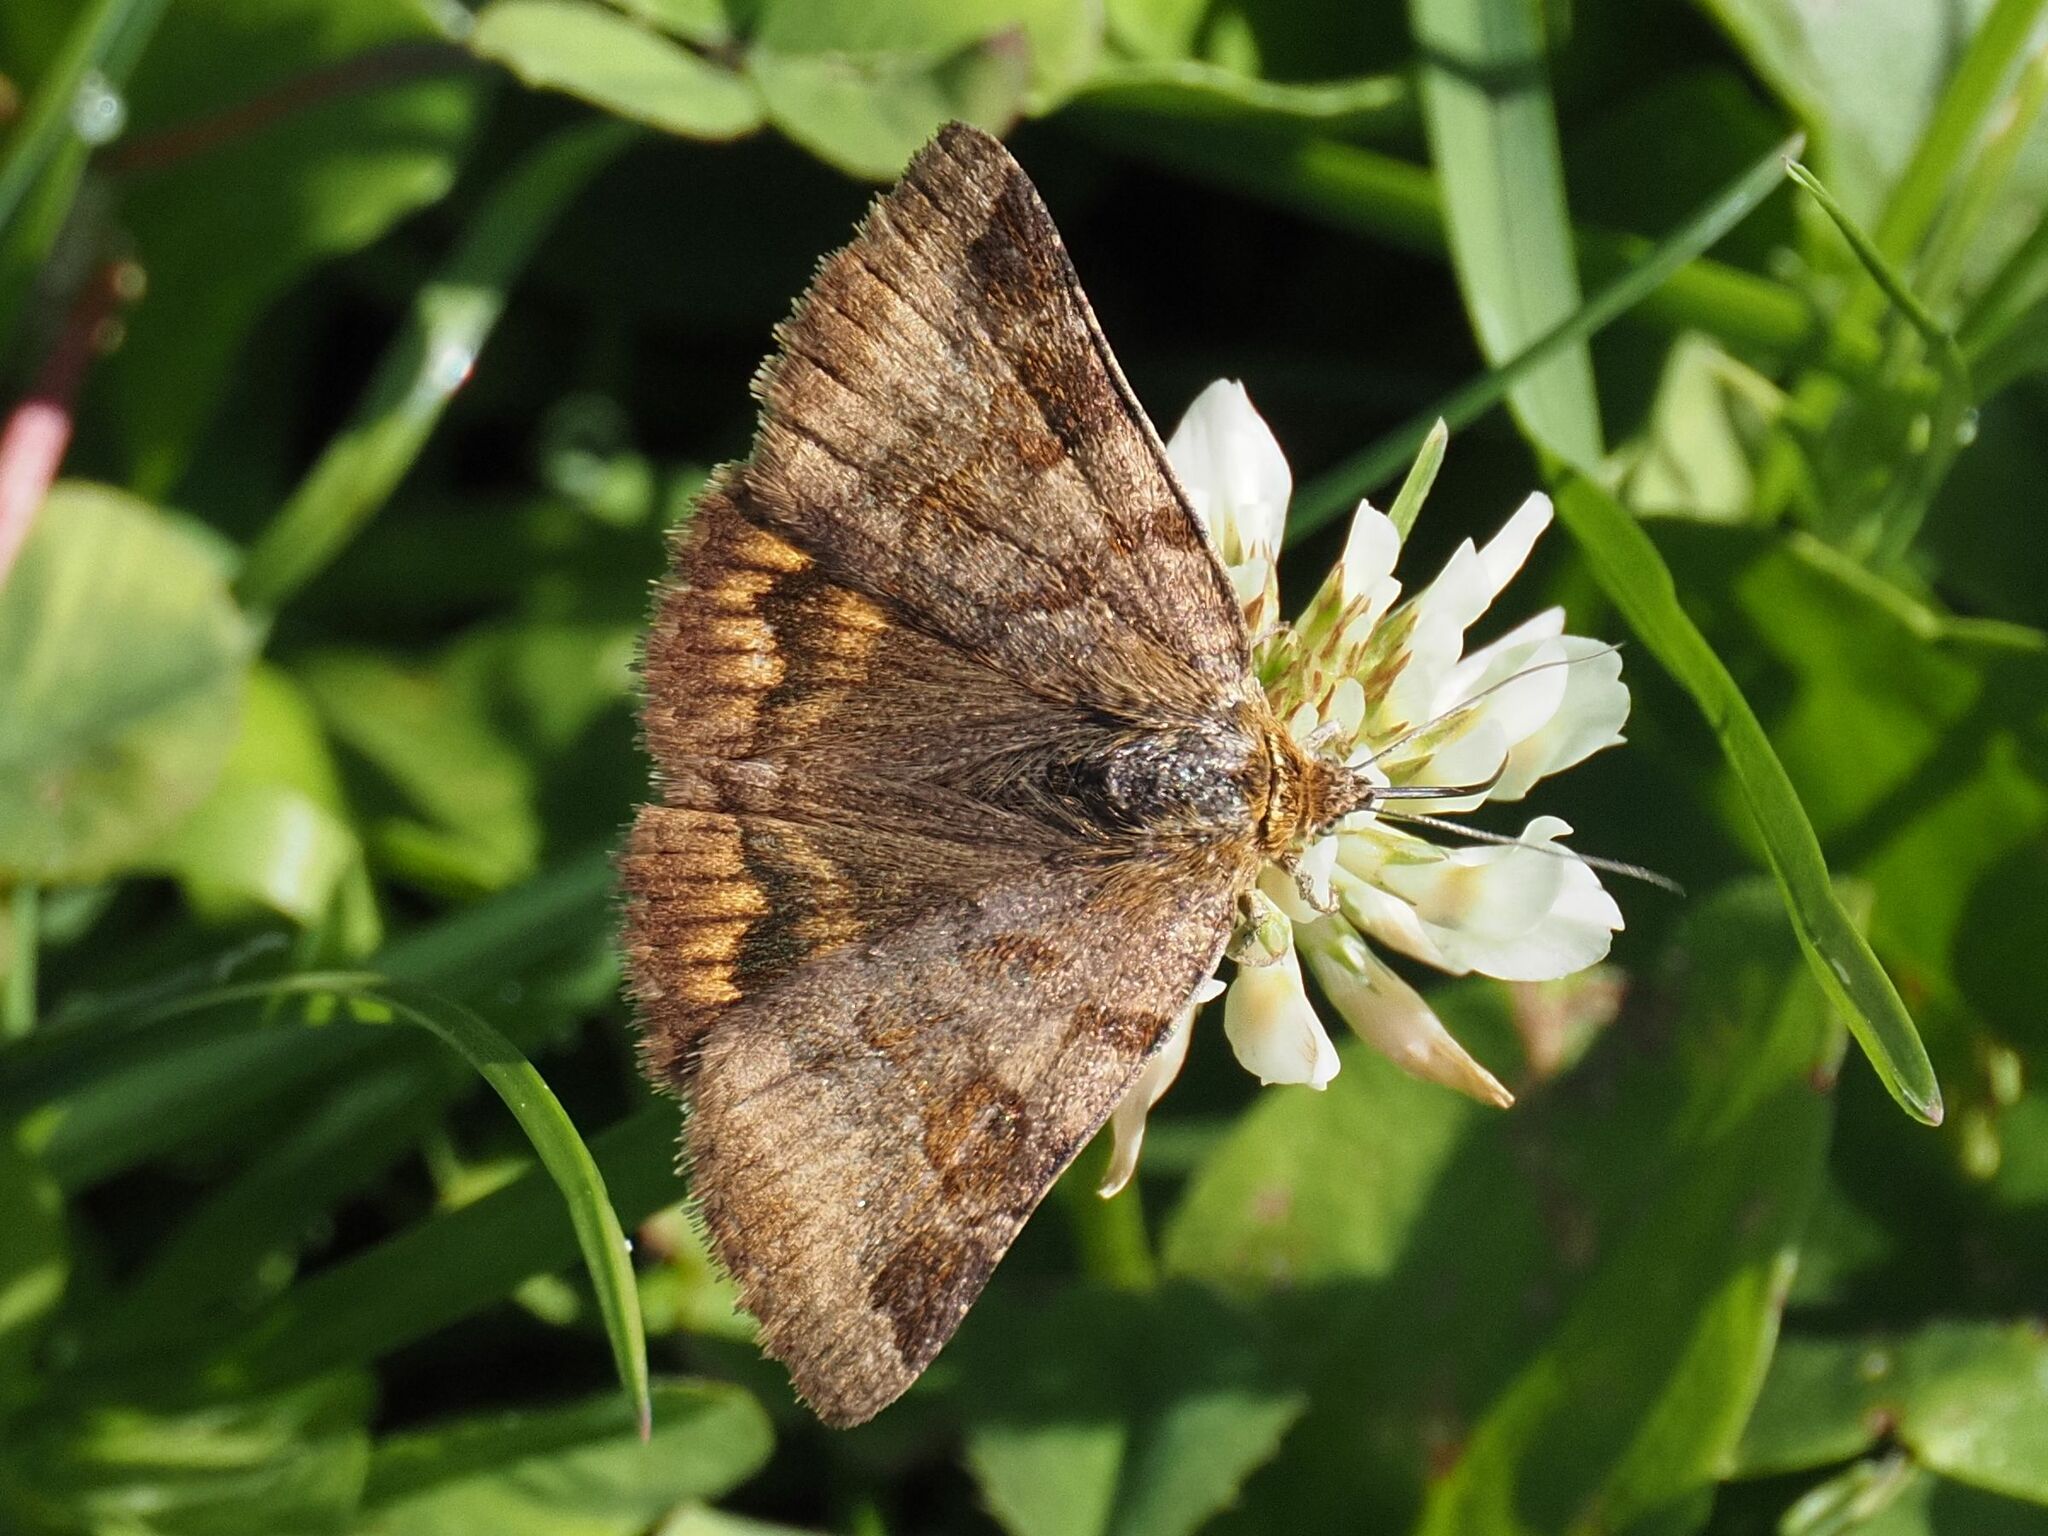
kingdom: Animalia
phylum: Arthropoda
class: Insecta
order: Lepidoptera
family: Erebidae
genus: Euclidia
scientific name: Euclidia glyphica
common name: Burnet companion
